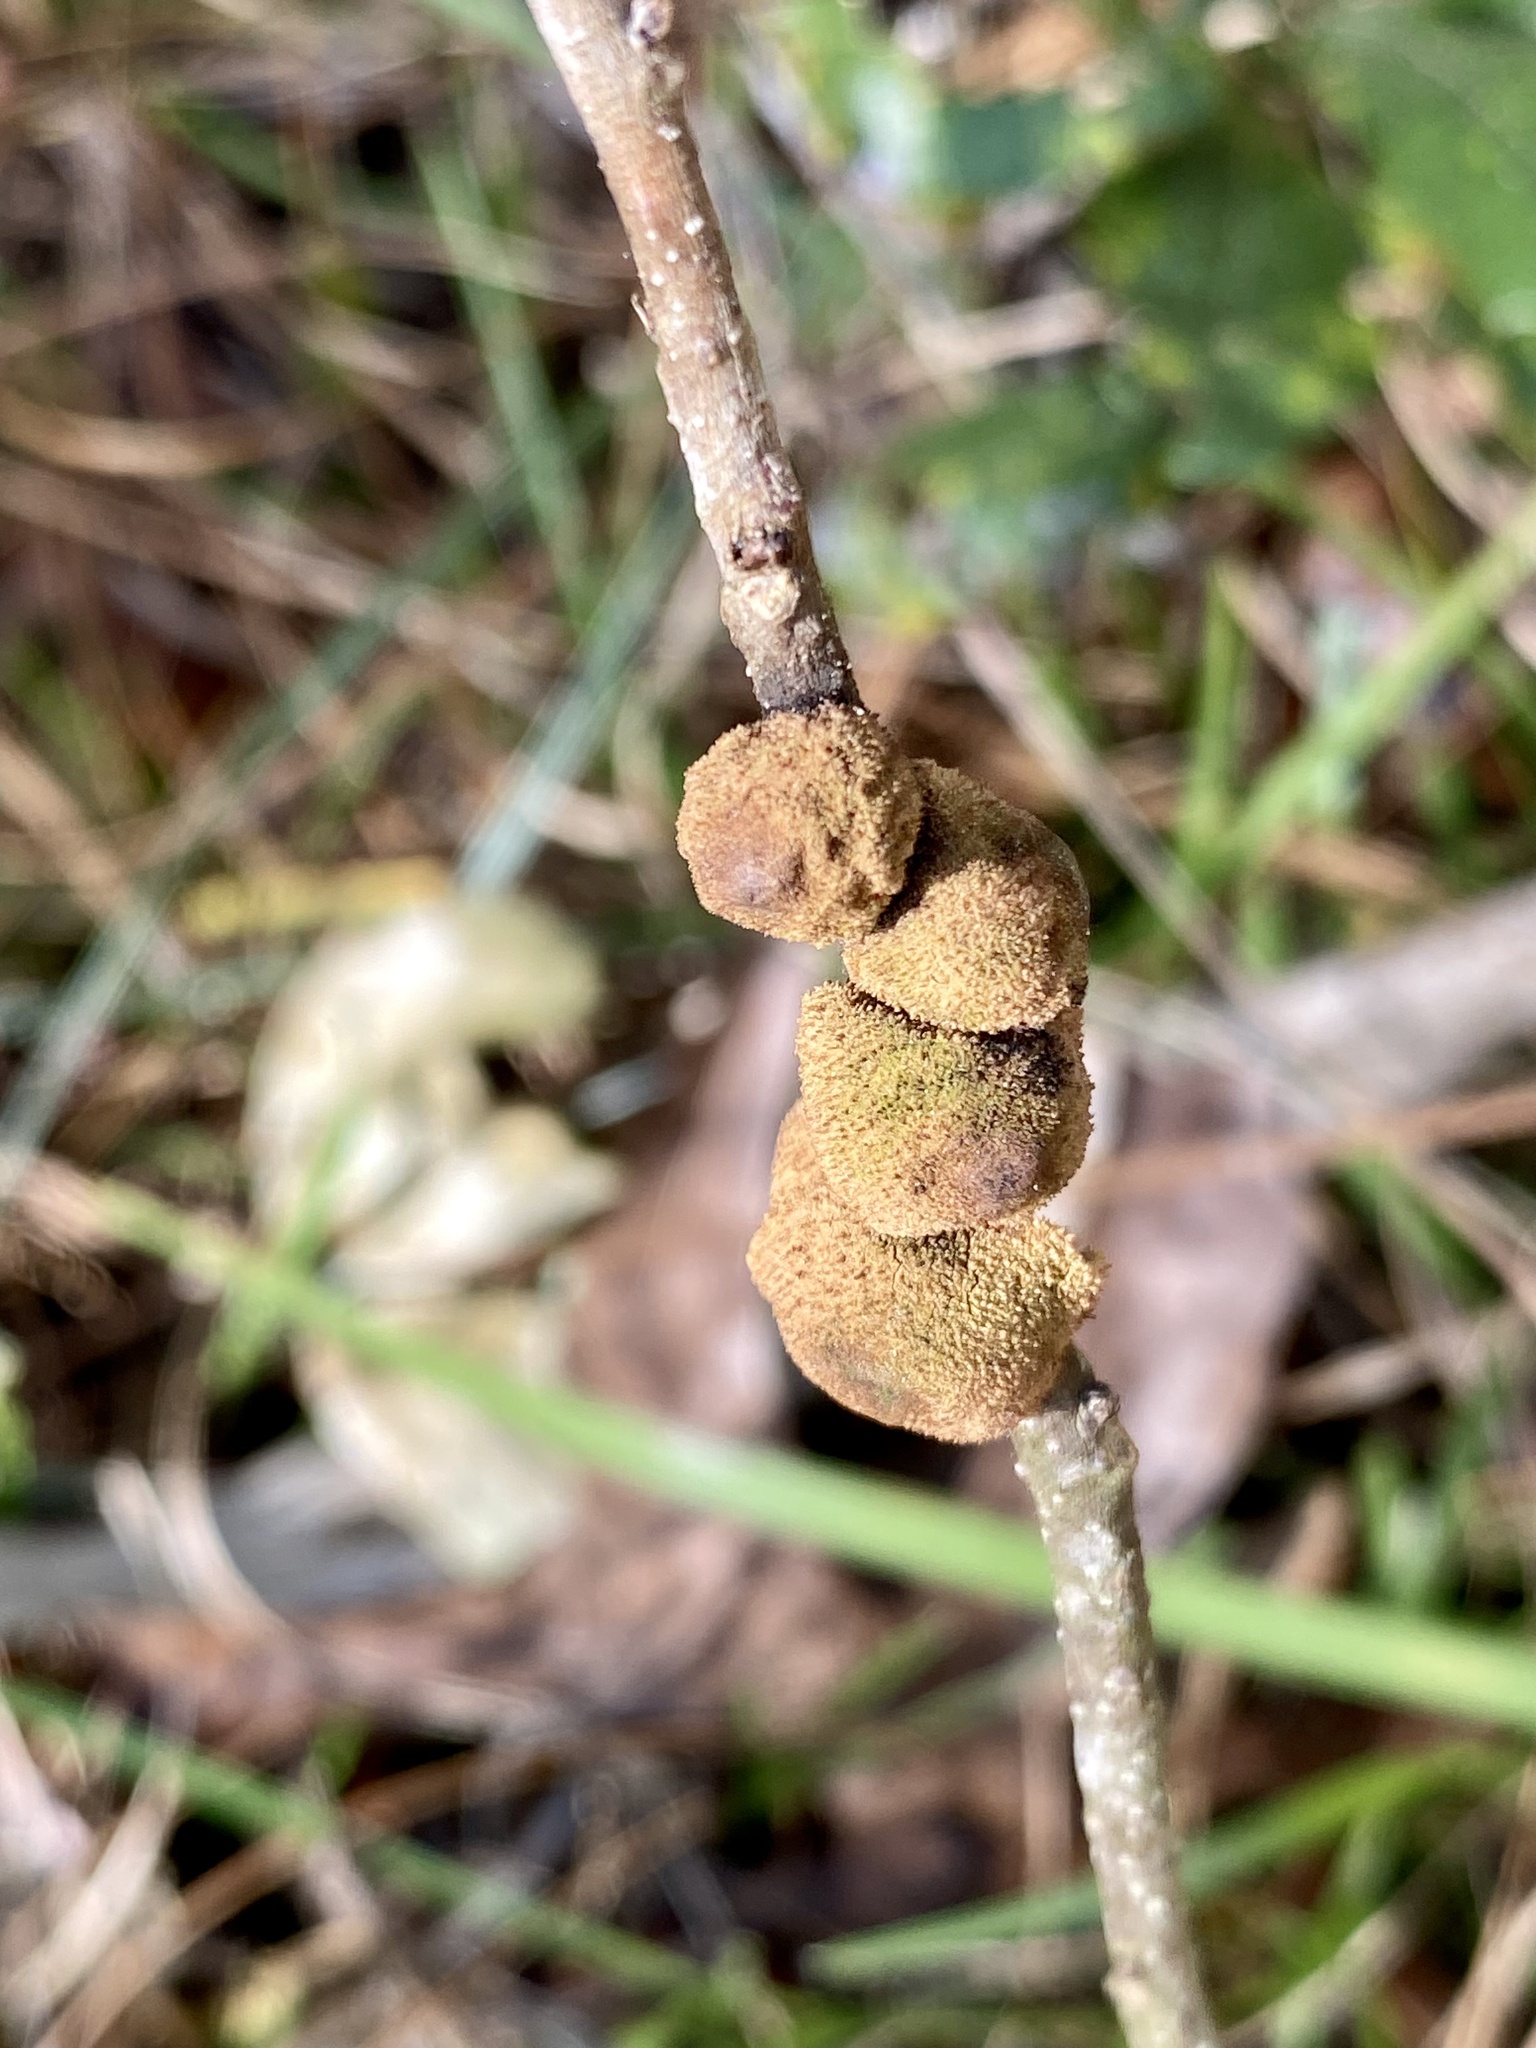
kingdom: Animalia
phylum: Arthropoda
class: Insecta
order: Hymenoptera
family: Cynipidae
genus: Disholcaspis
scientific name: Disholcaspis
